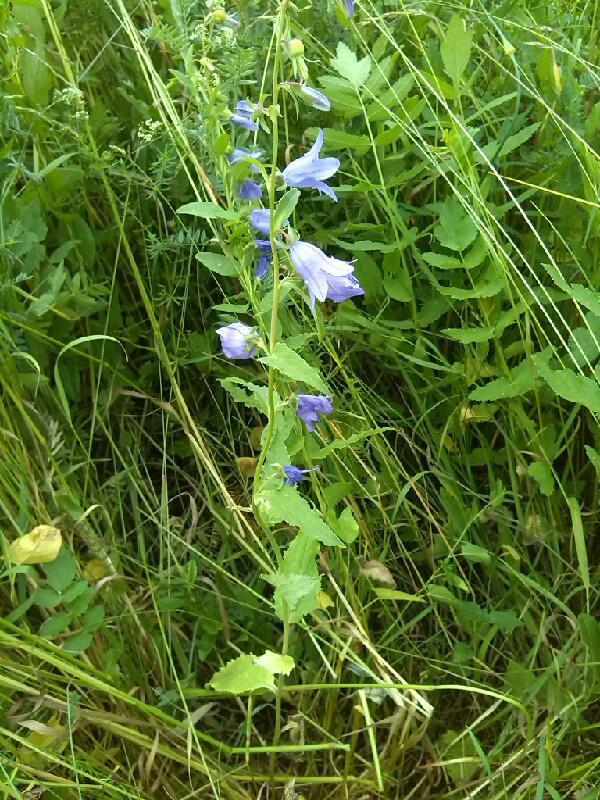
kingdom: Plantae
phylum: Tracheophyta
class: Magnoliopsida
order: Asterales
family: Campanulaceae
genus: Campanula
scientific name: Campanula rapunculoides
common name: Creeping bellflower
